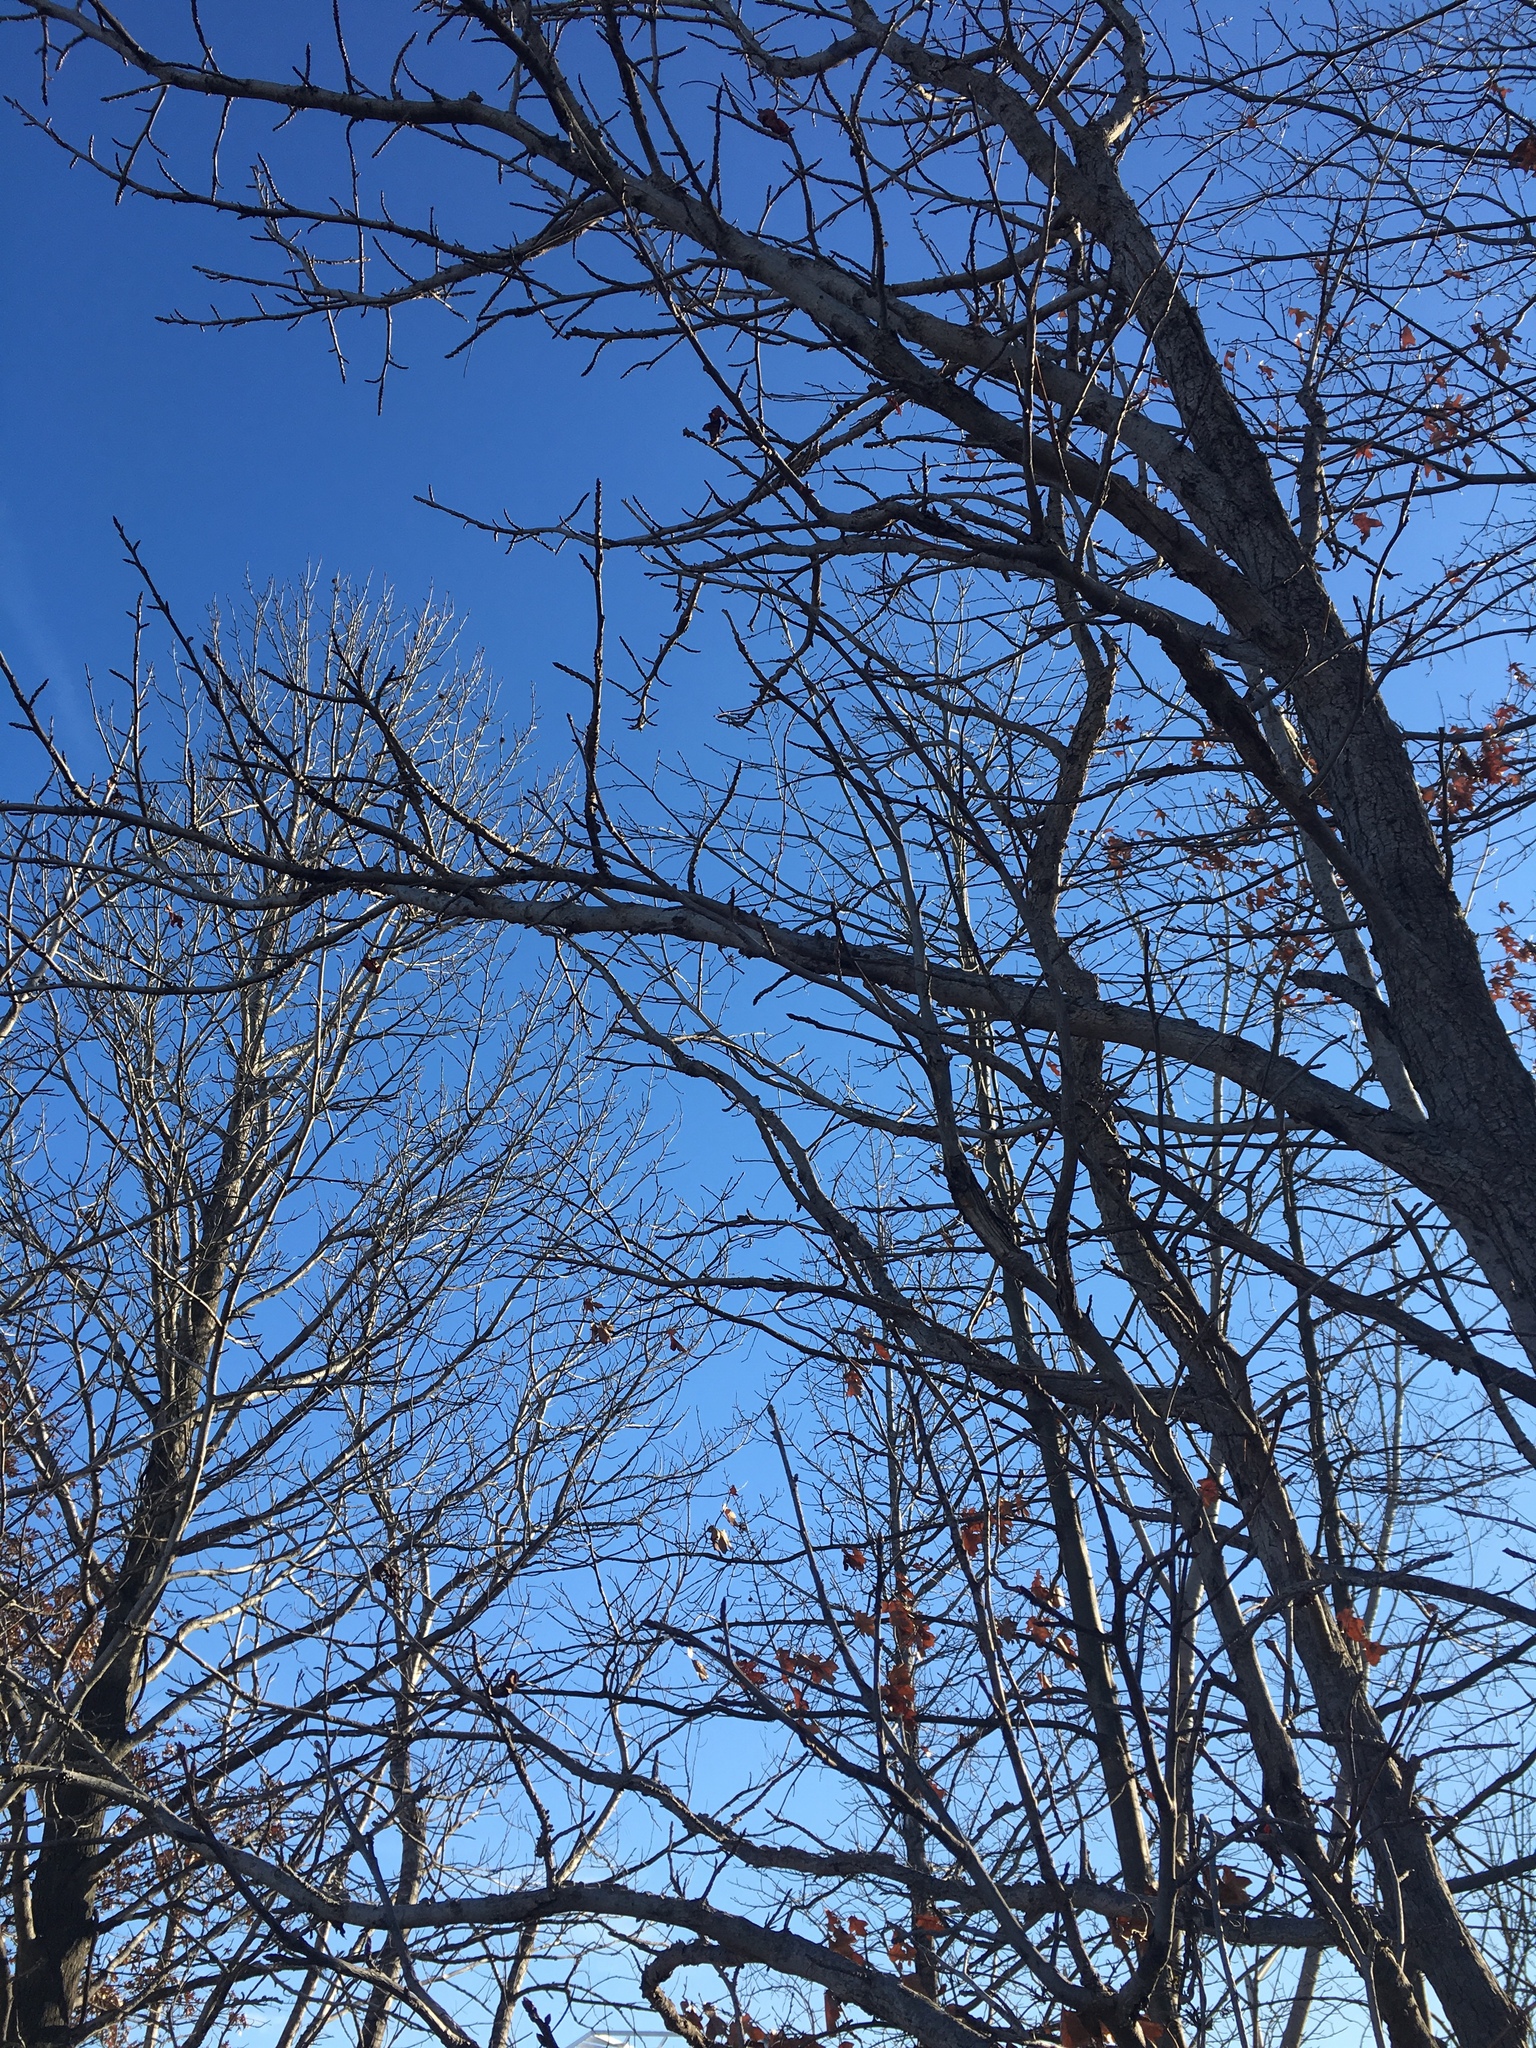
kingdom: Plantae
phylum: Tracheophyta
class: Magnoliopsida
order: Saxifragales
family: Altingiaceae
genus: Liquidambar
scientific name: Liquidambar styraciflua
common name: Sweet gum
